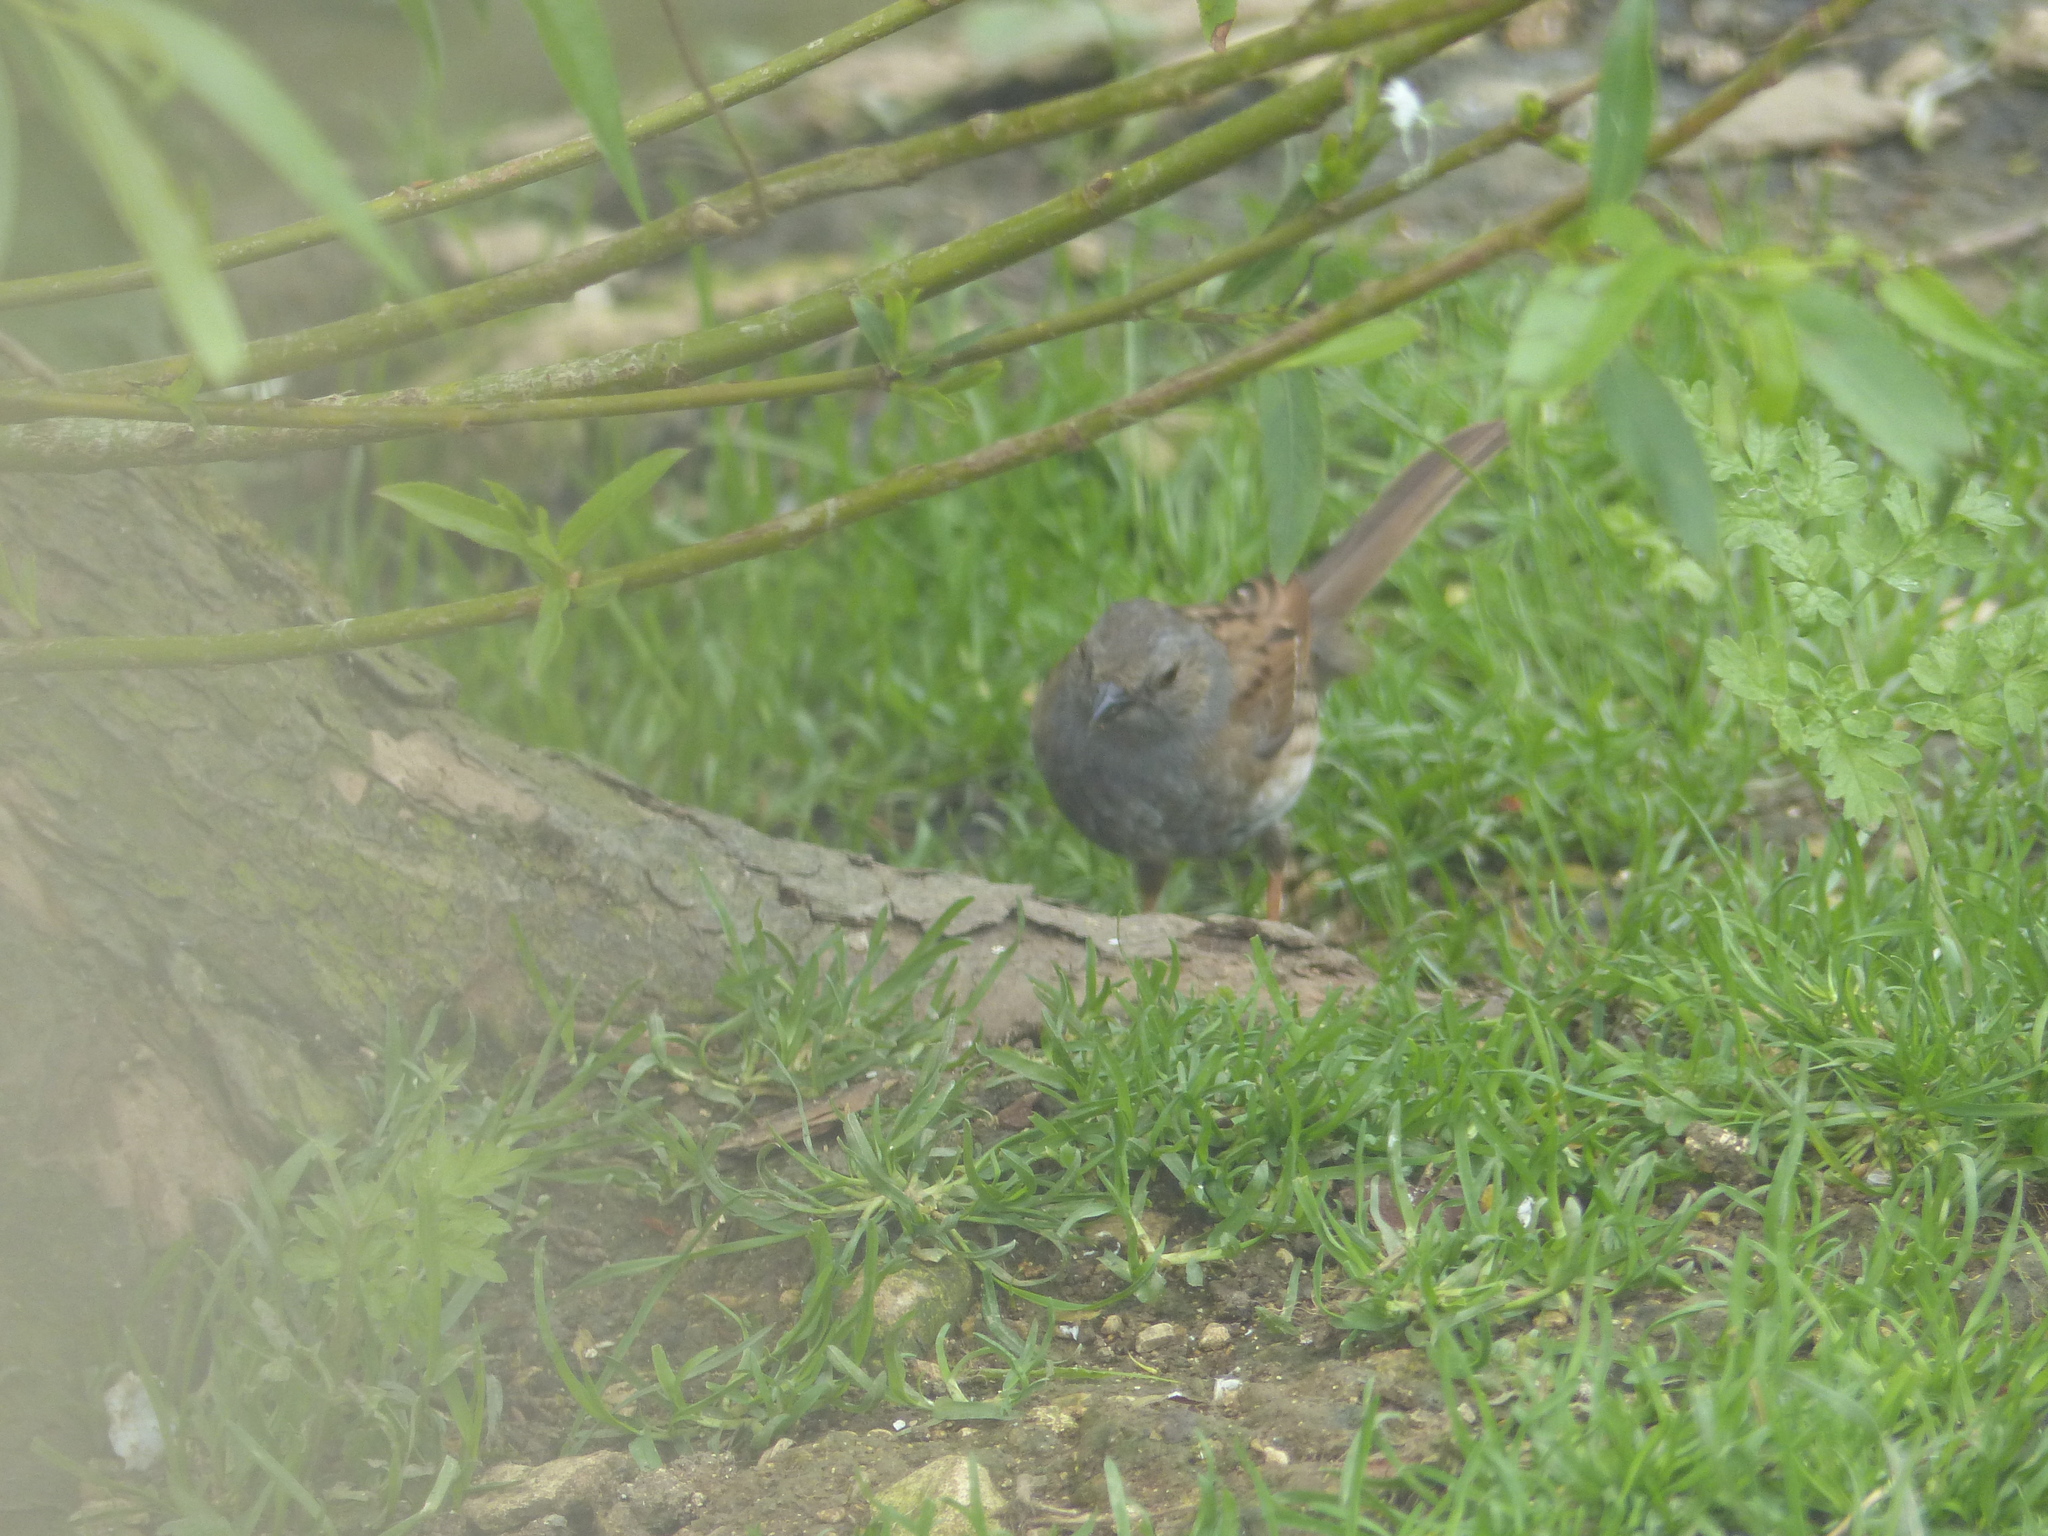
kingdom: Animalia
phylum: Chordata
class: Aves
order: Passeriformes
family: Prunellidae
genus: Prunella
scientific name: Prunella modularis
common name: Dunnock
